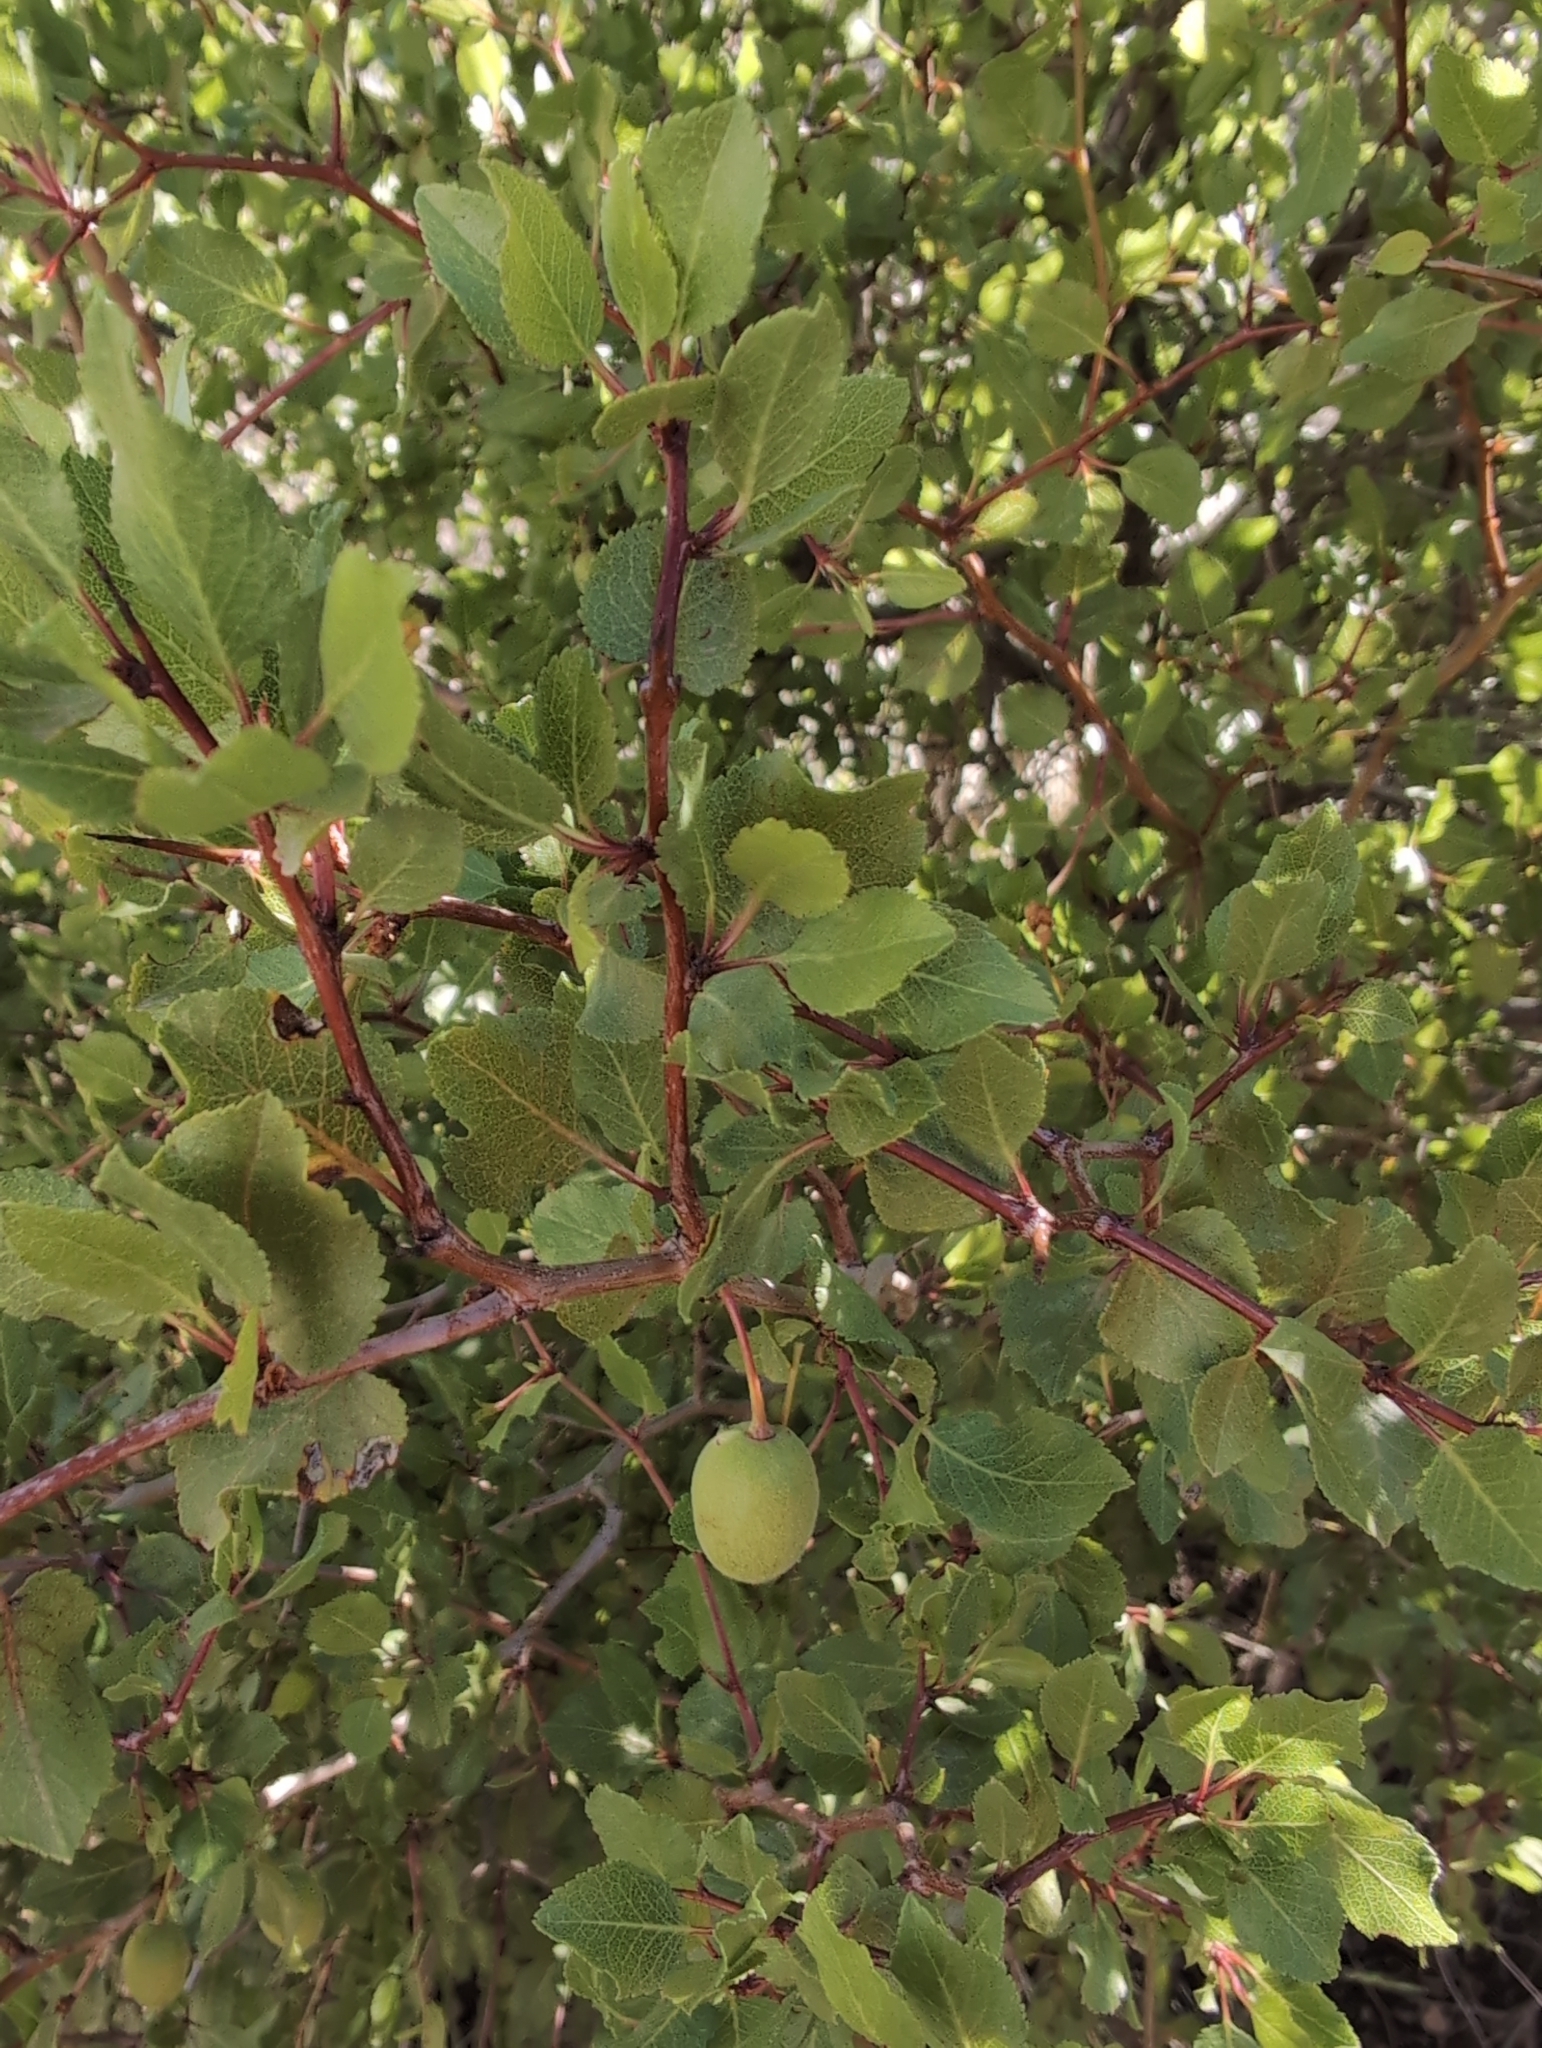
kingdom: Plantae
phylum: Tracheophyta
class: Magnoliopsida
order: Rosales
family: Rosaceae
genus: Prunus
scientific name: Prunus fremontii
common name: Desert apricot
